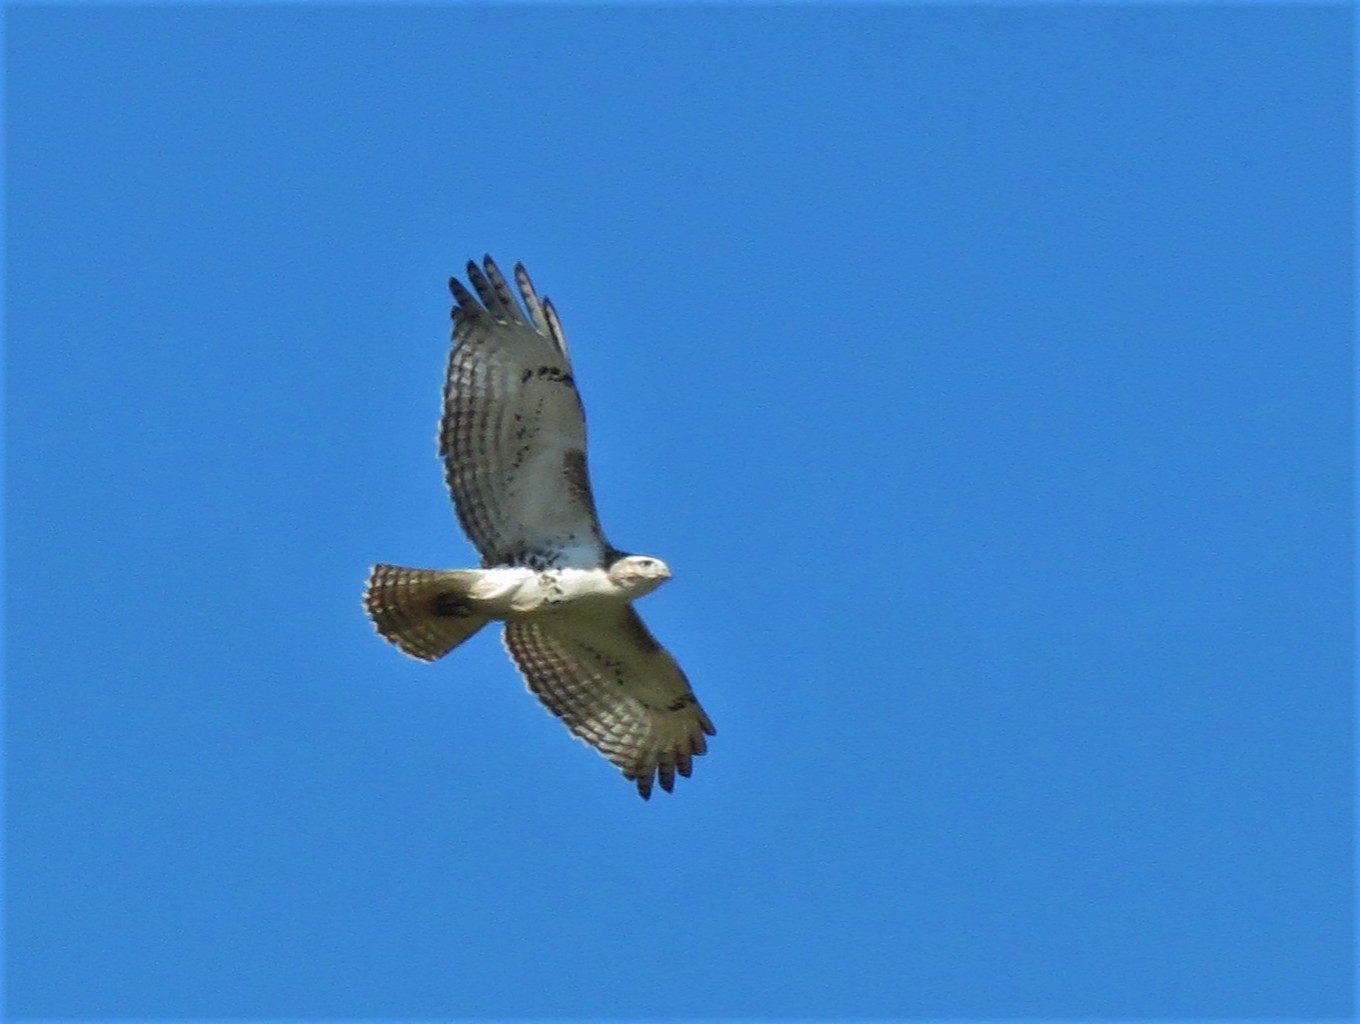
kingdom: Animalia
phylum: Chordata
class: Aves
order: Accipitriformes
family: Accipitridae
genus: Buteo
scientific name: Buteo jamaicensis
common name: Red-tailed hawk
